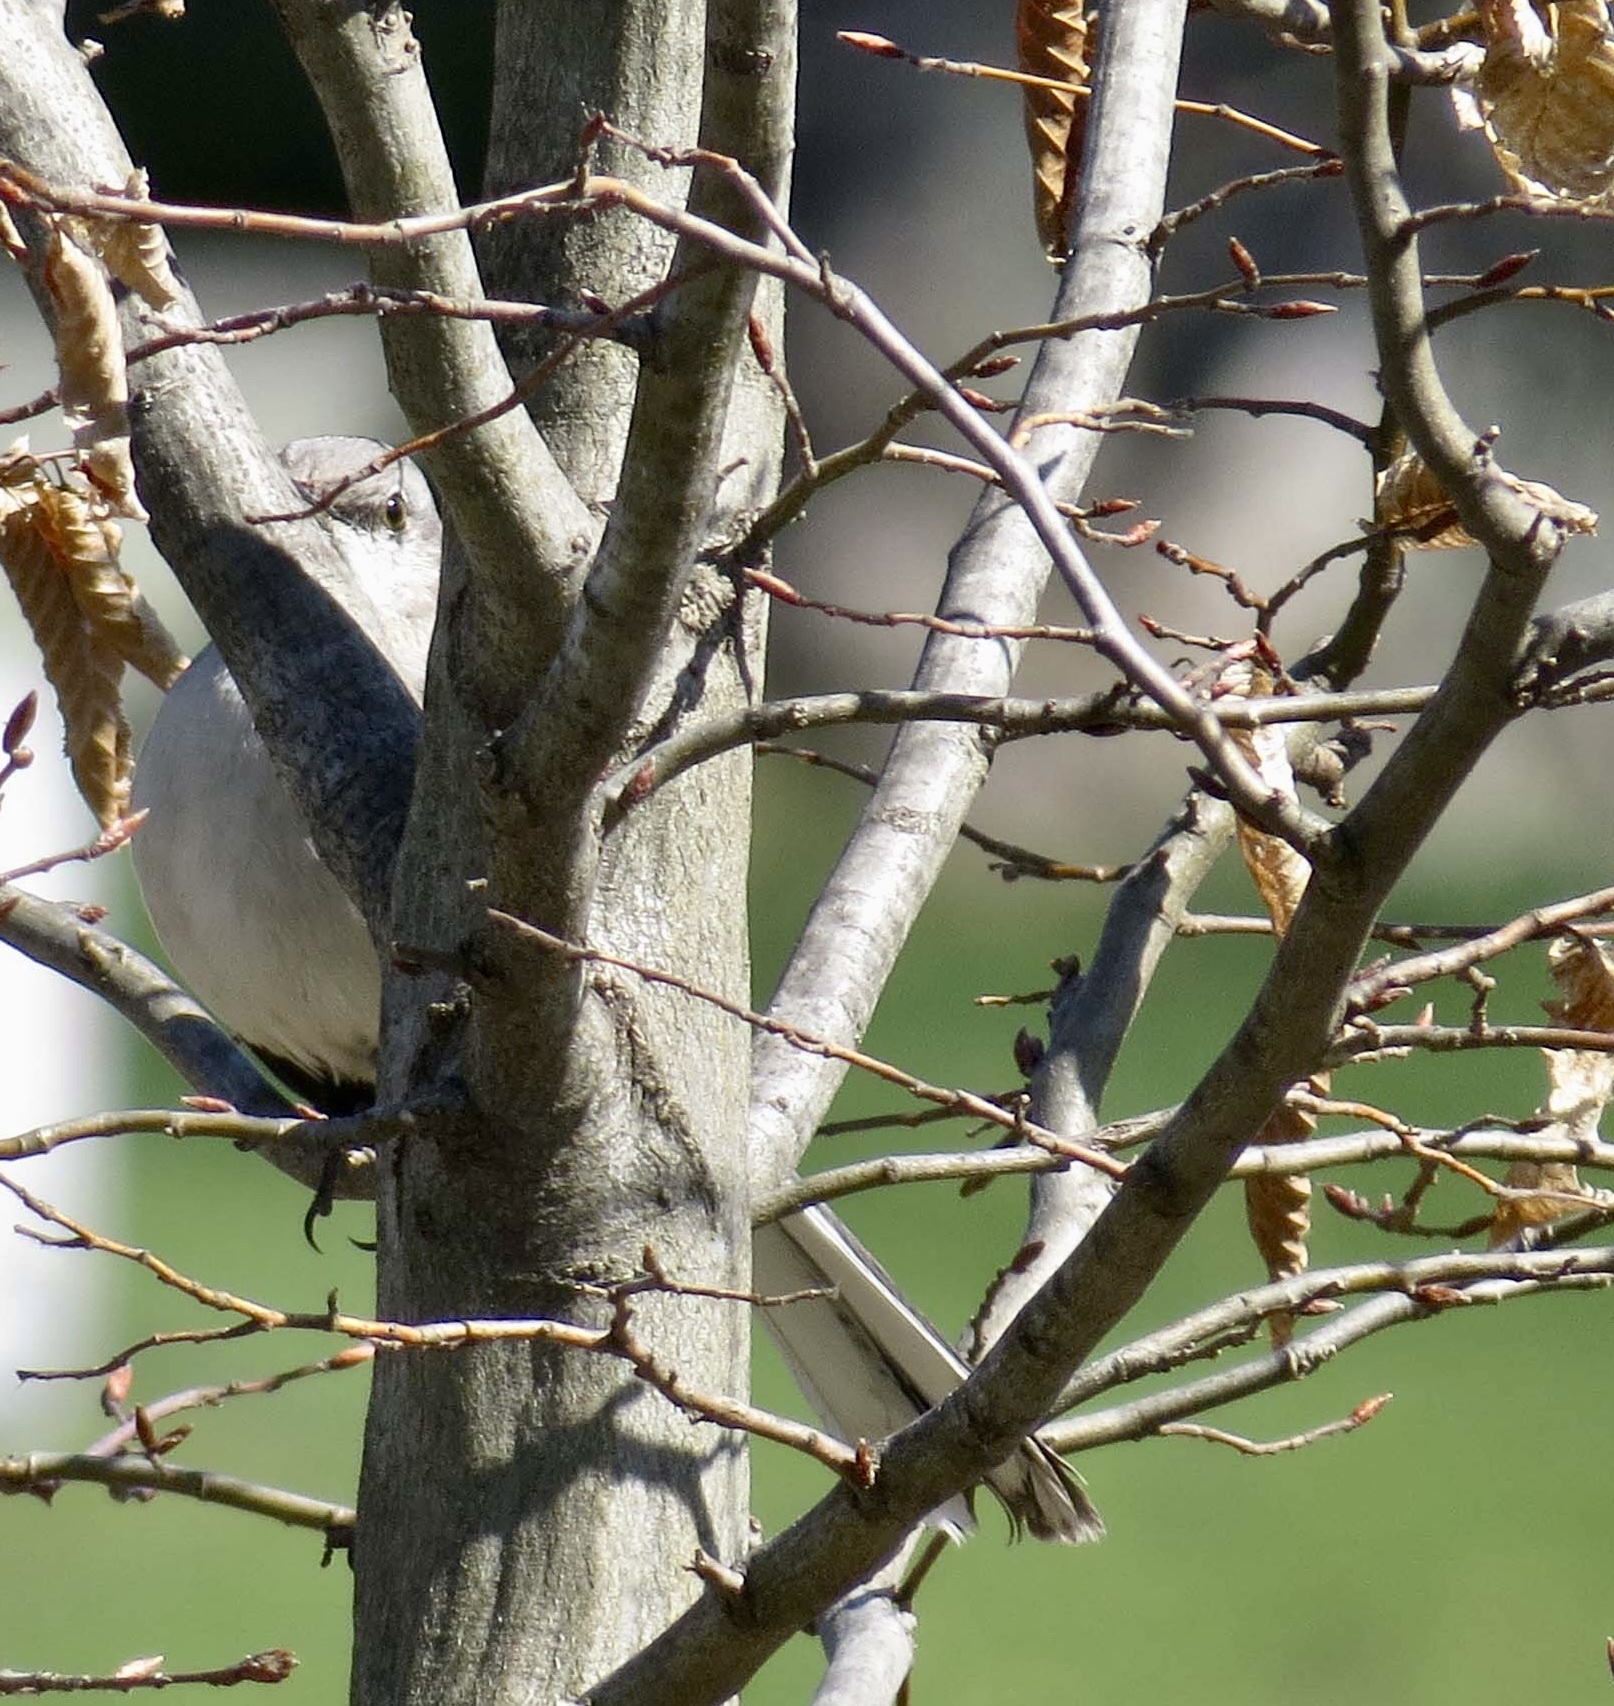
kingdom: Animalia
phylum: Chordata
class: Aves
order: Passeriformes
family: Mimidae
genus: Mimus
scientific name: Mimus polyglottos
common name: Northern mockingbird
